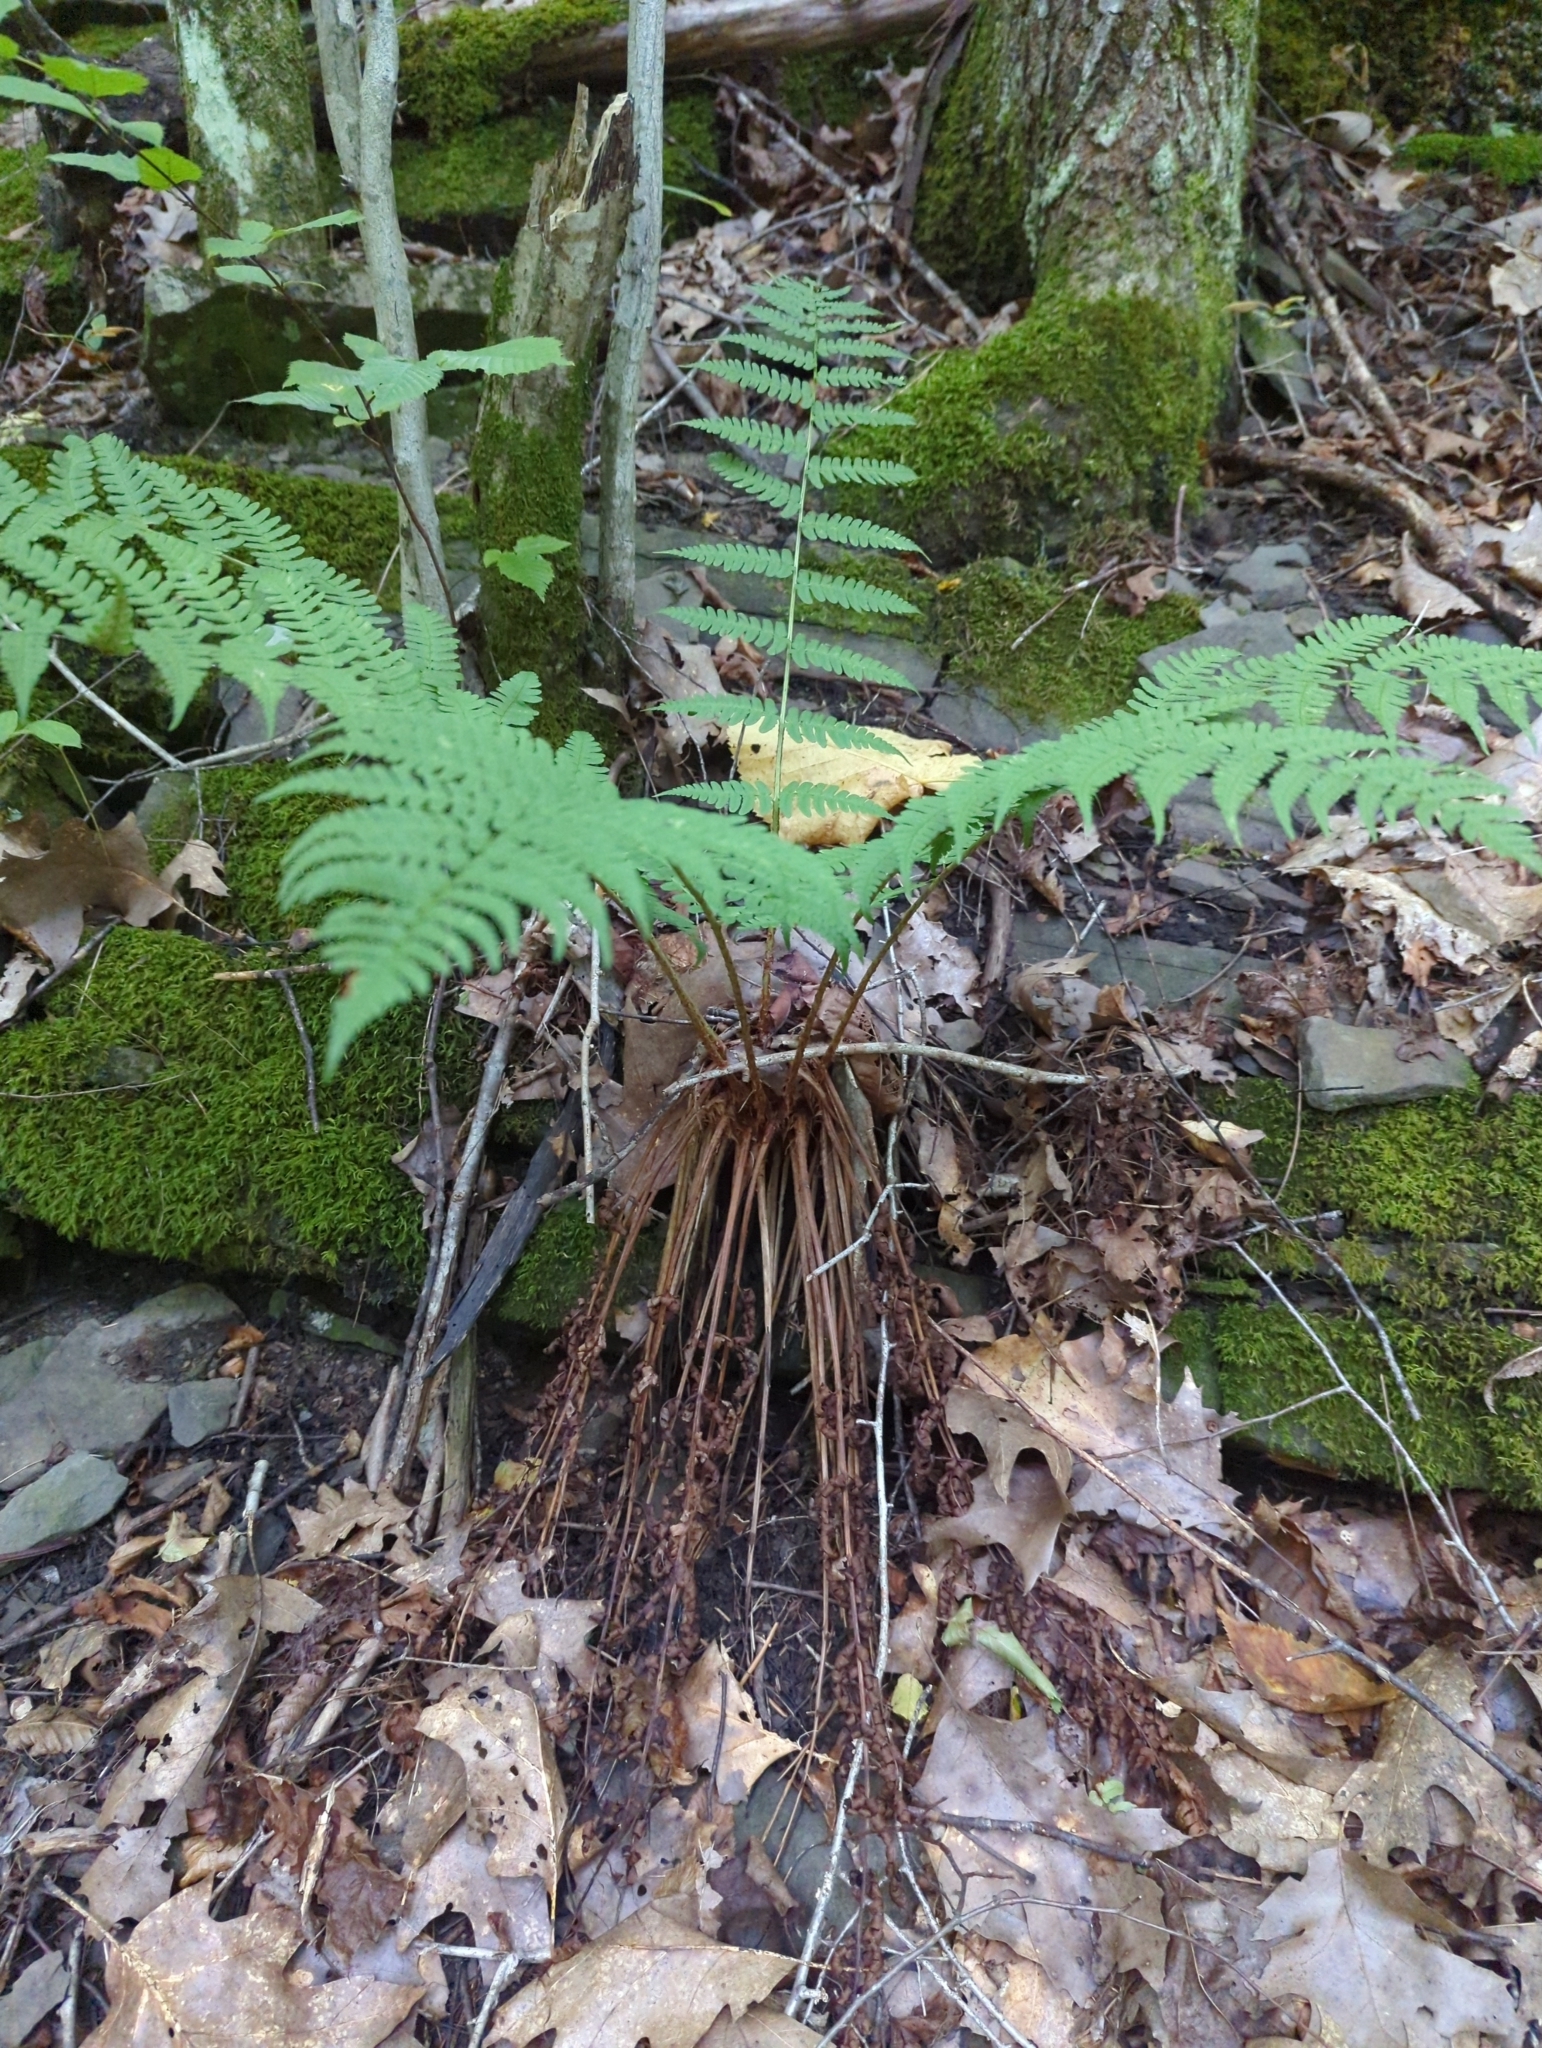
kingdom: Plantae
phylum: Tracheophyta
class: Polypodiopsida
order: Polypodiales
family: Dryopteridaceae
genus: Dryopteris
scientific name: Dryopteris marginalis
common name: Marginal wood fern
